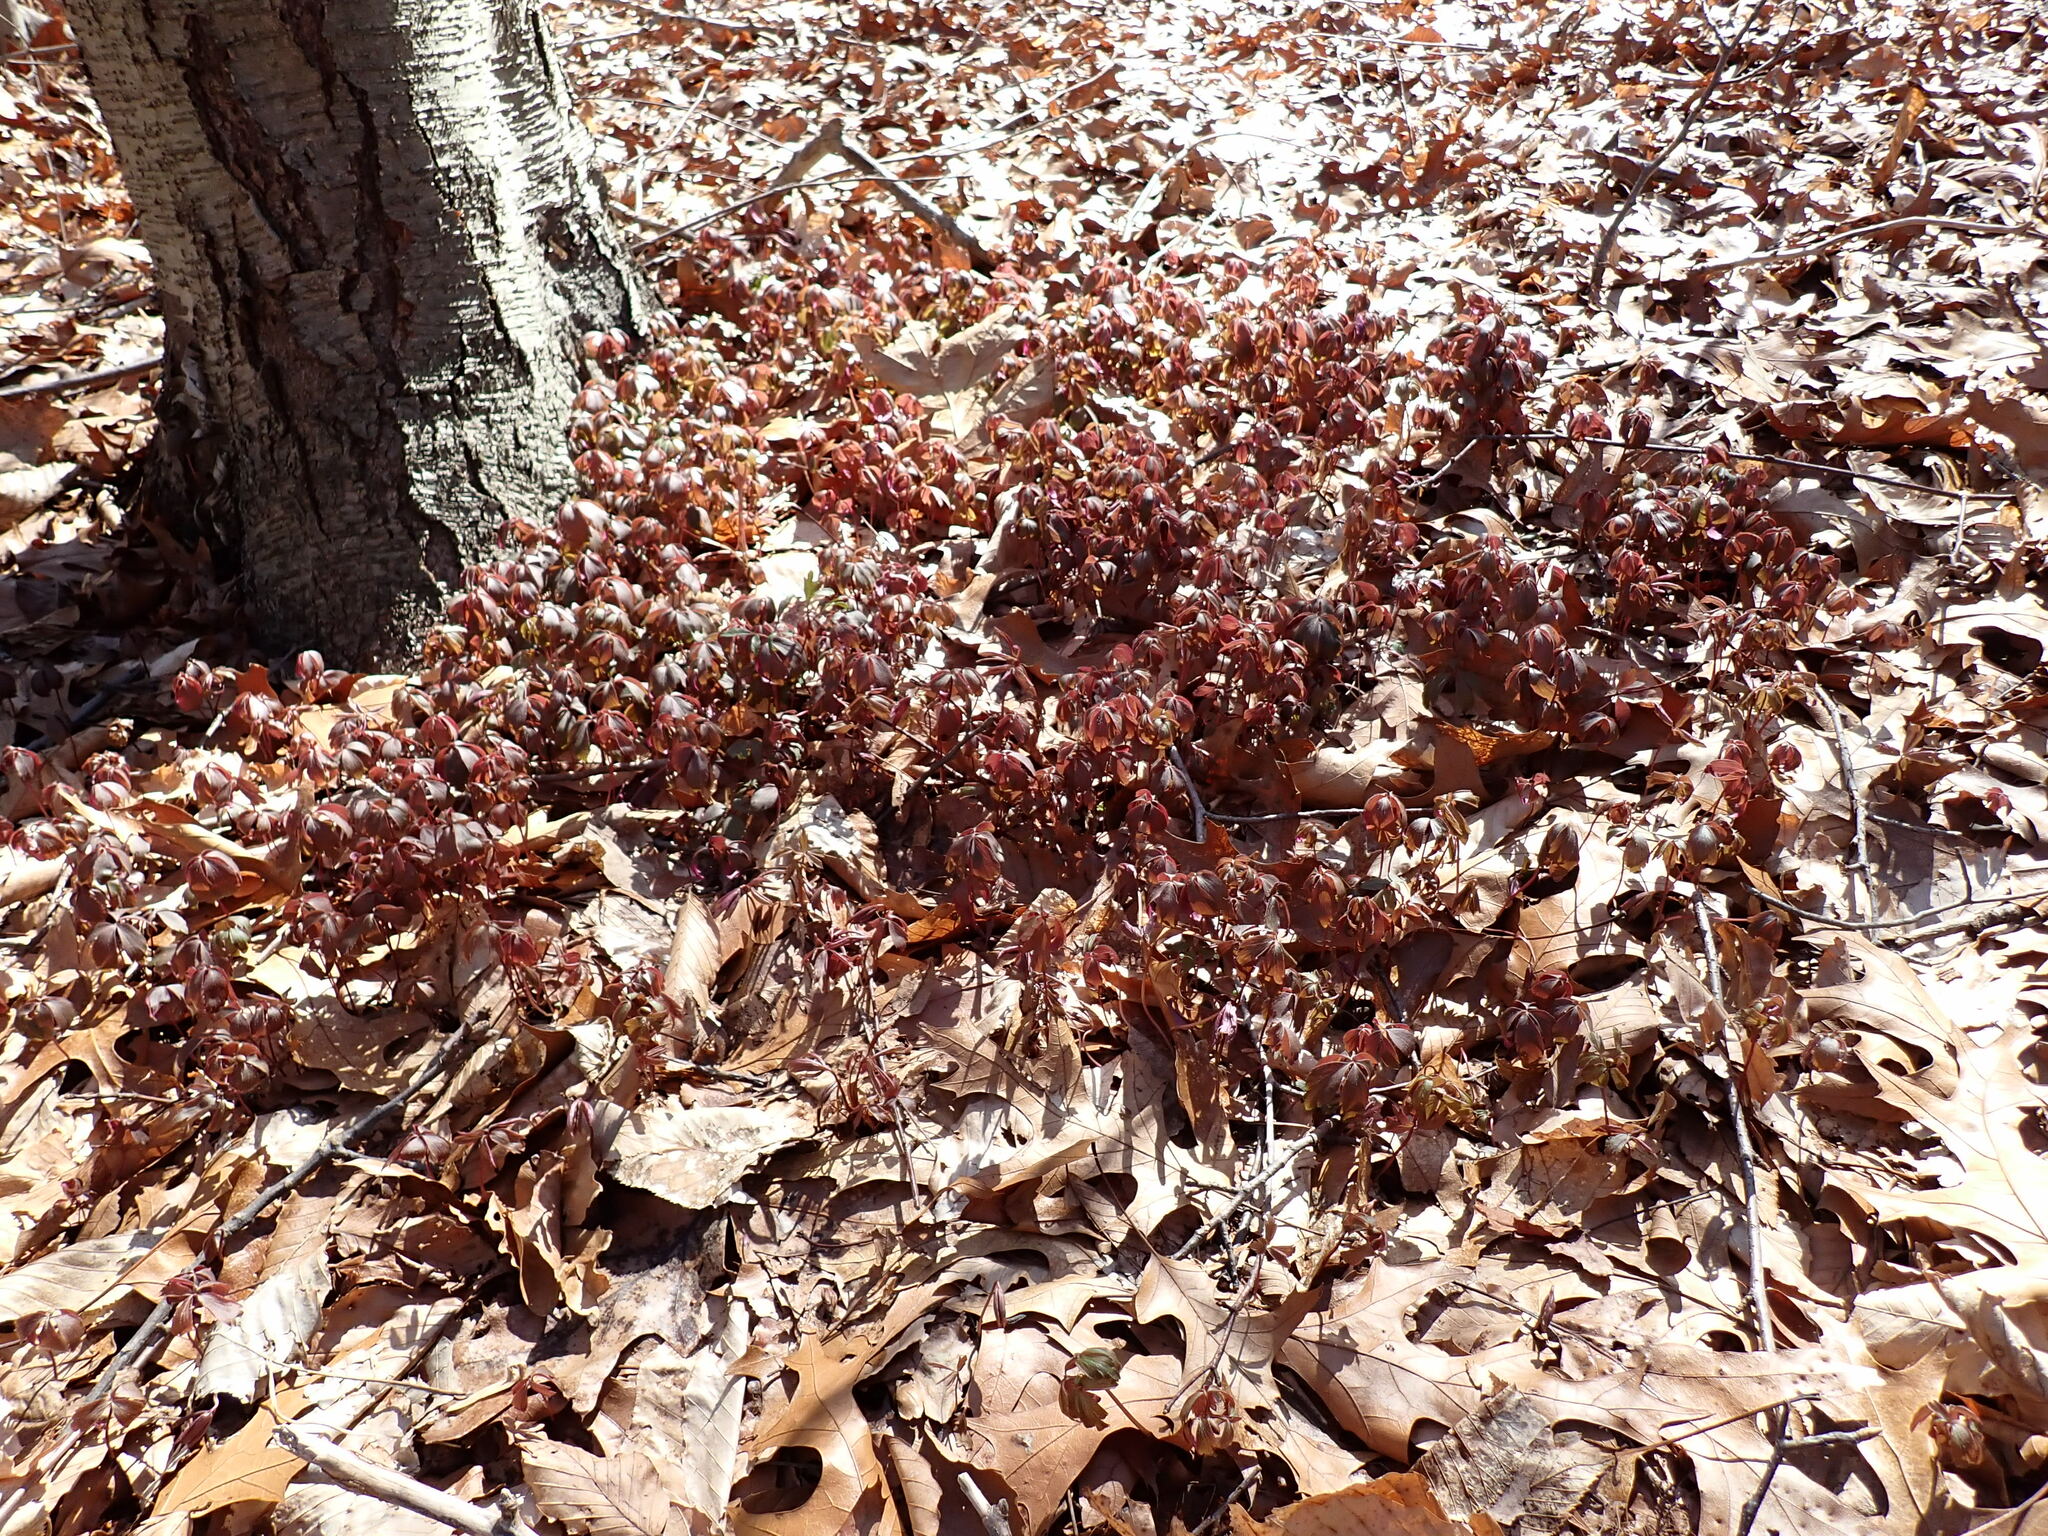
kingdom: Plantae
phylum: Tracheophyta
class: Magnoliopsida
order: Ranunculales
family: Ranunculaceae
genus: Anemone
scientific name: Anemone quinquefolia
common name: Wood anemone
